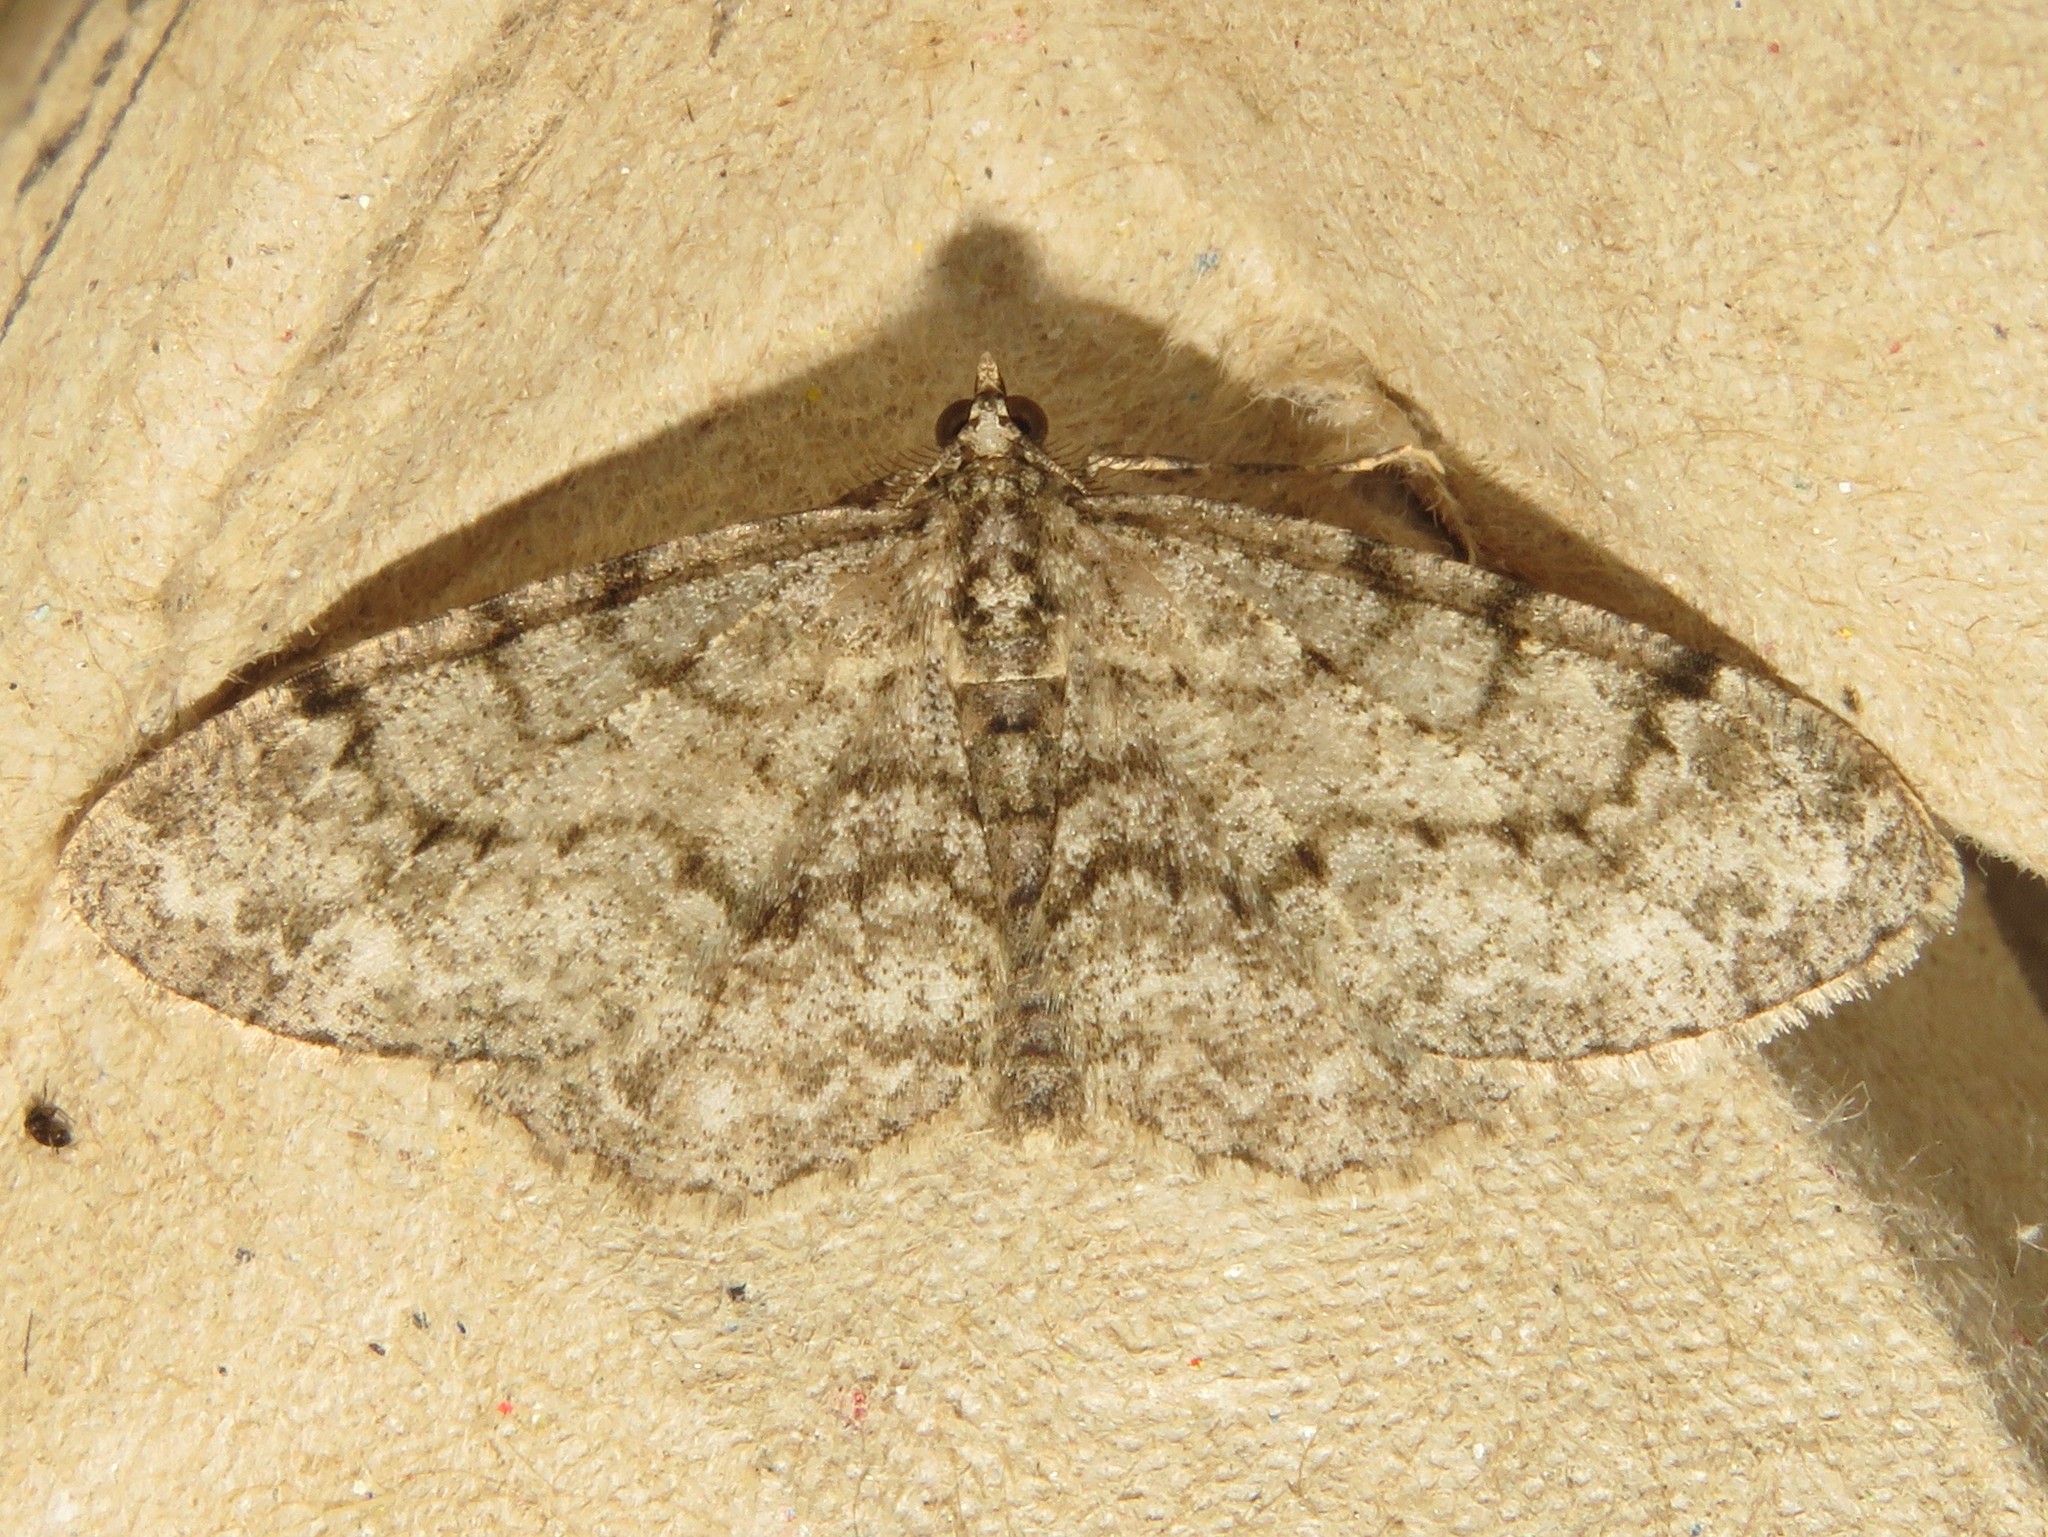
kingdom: Animalia
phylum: Arthropoda
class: Insecta
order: Lepidoptera
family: Geometridae
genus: Protoboarmia
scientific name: Protoboarmia porcelaria
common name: Porcelain gray
